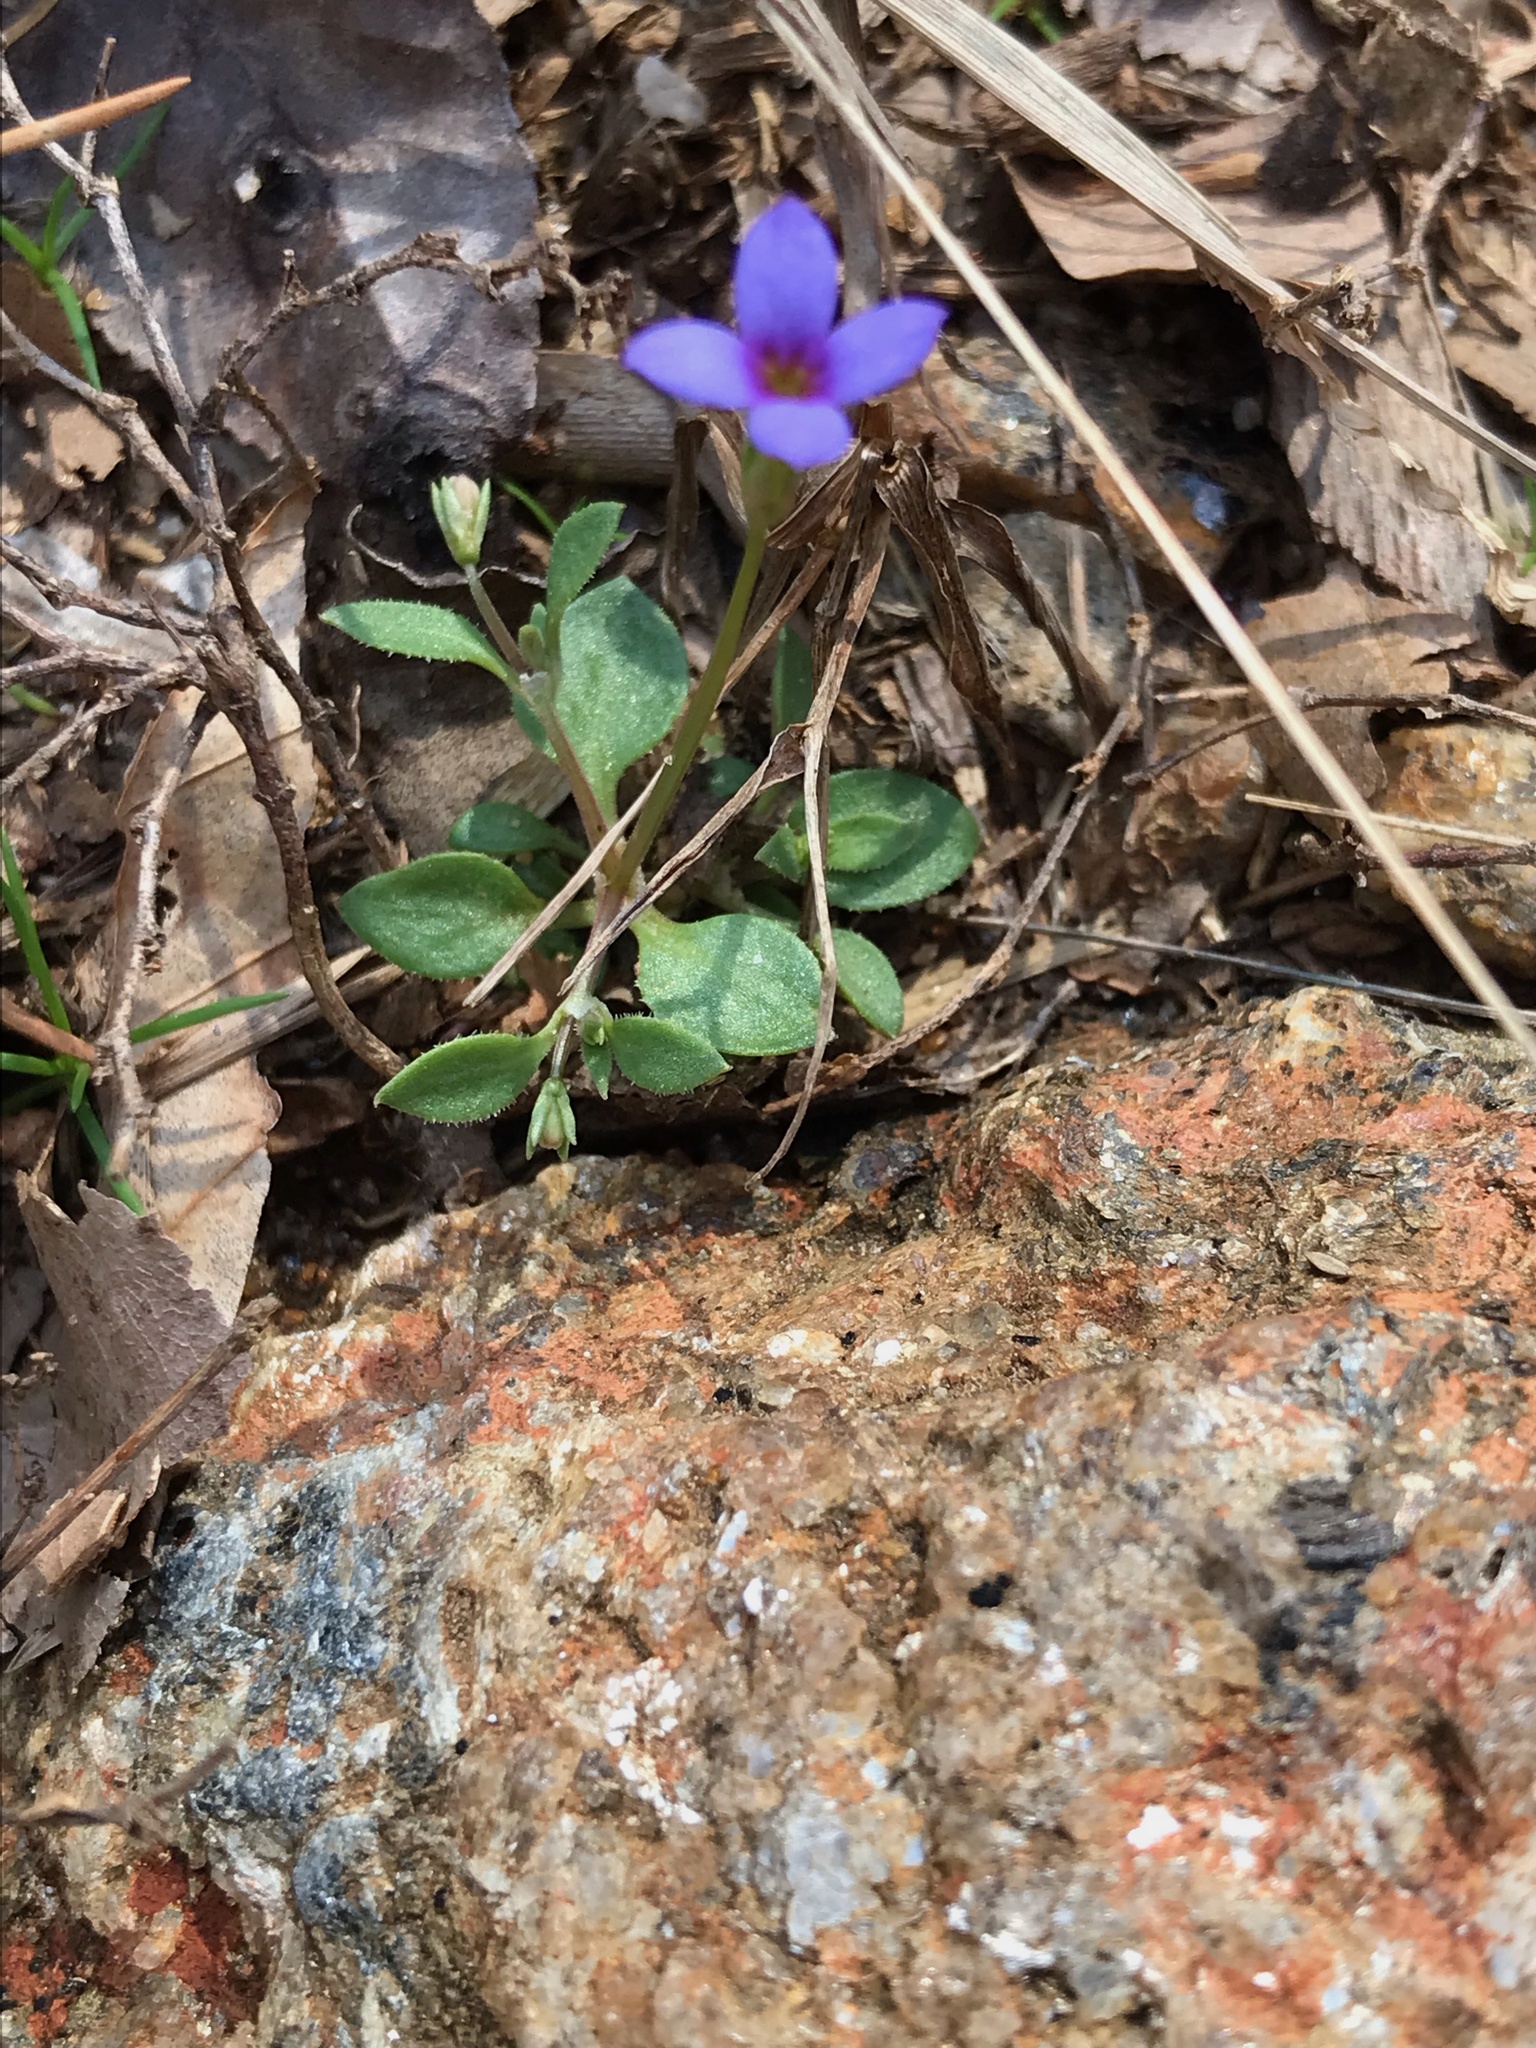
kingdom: Plantae
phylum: Tracheophyta
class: Magnoliopsida
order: Gentianales
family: Rubiaceae
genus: Houstonia
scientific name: Houstonia pusilla
